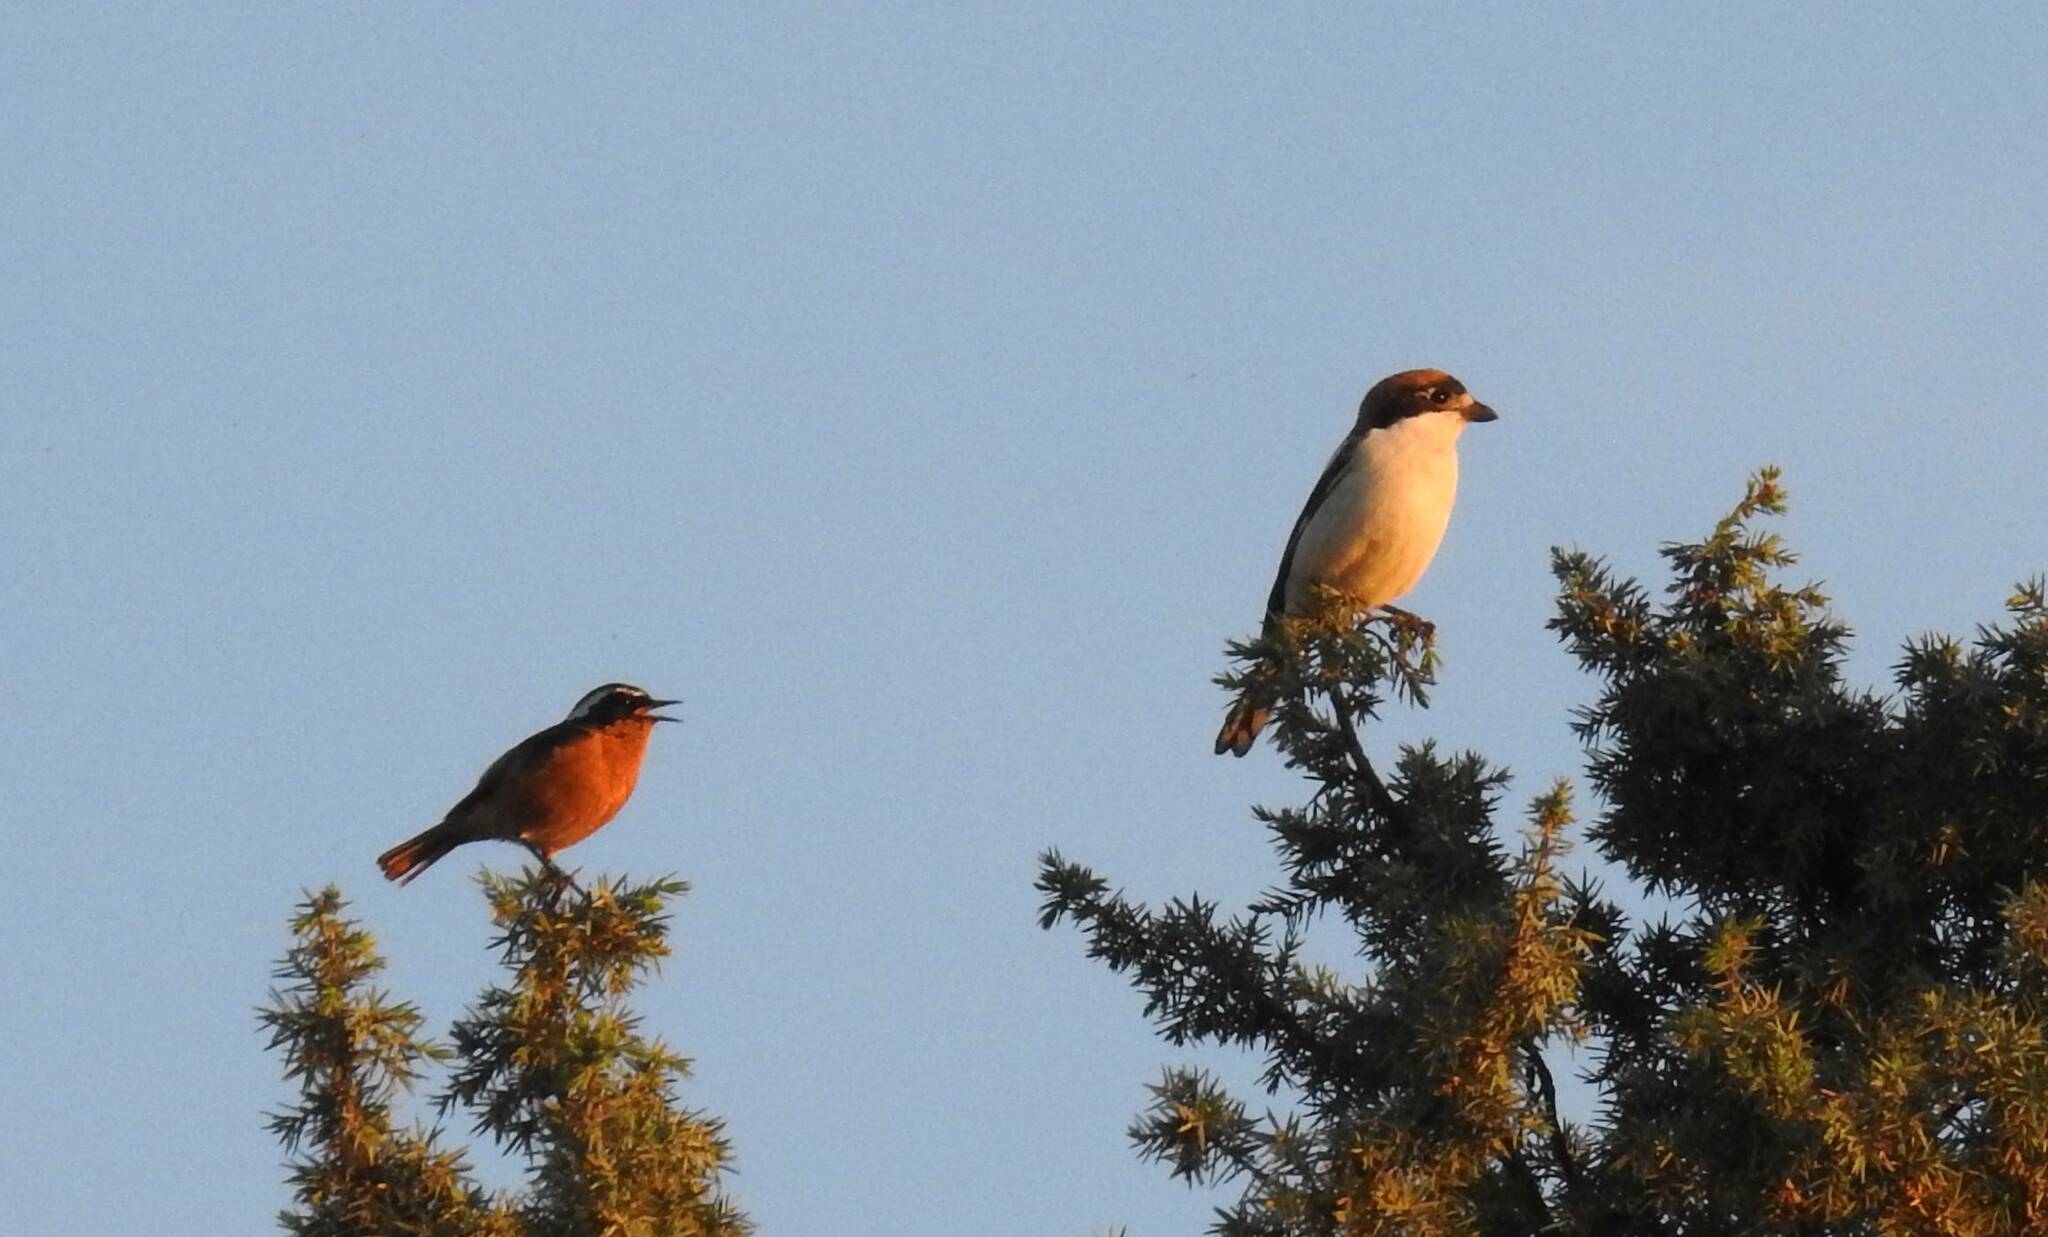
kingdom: Animalia
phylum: Chordata
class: Aves
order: Passeriformes
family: Laniidae
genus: Lanius
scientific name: Lanius senator
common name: Woodchat shrike
